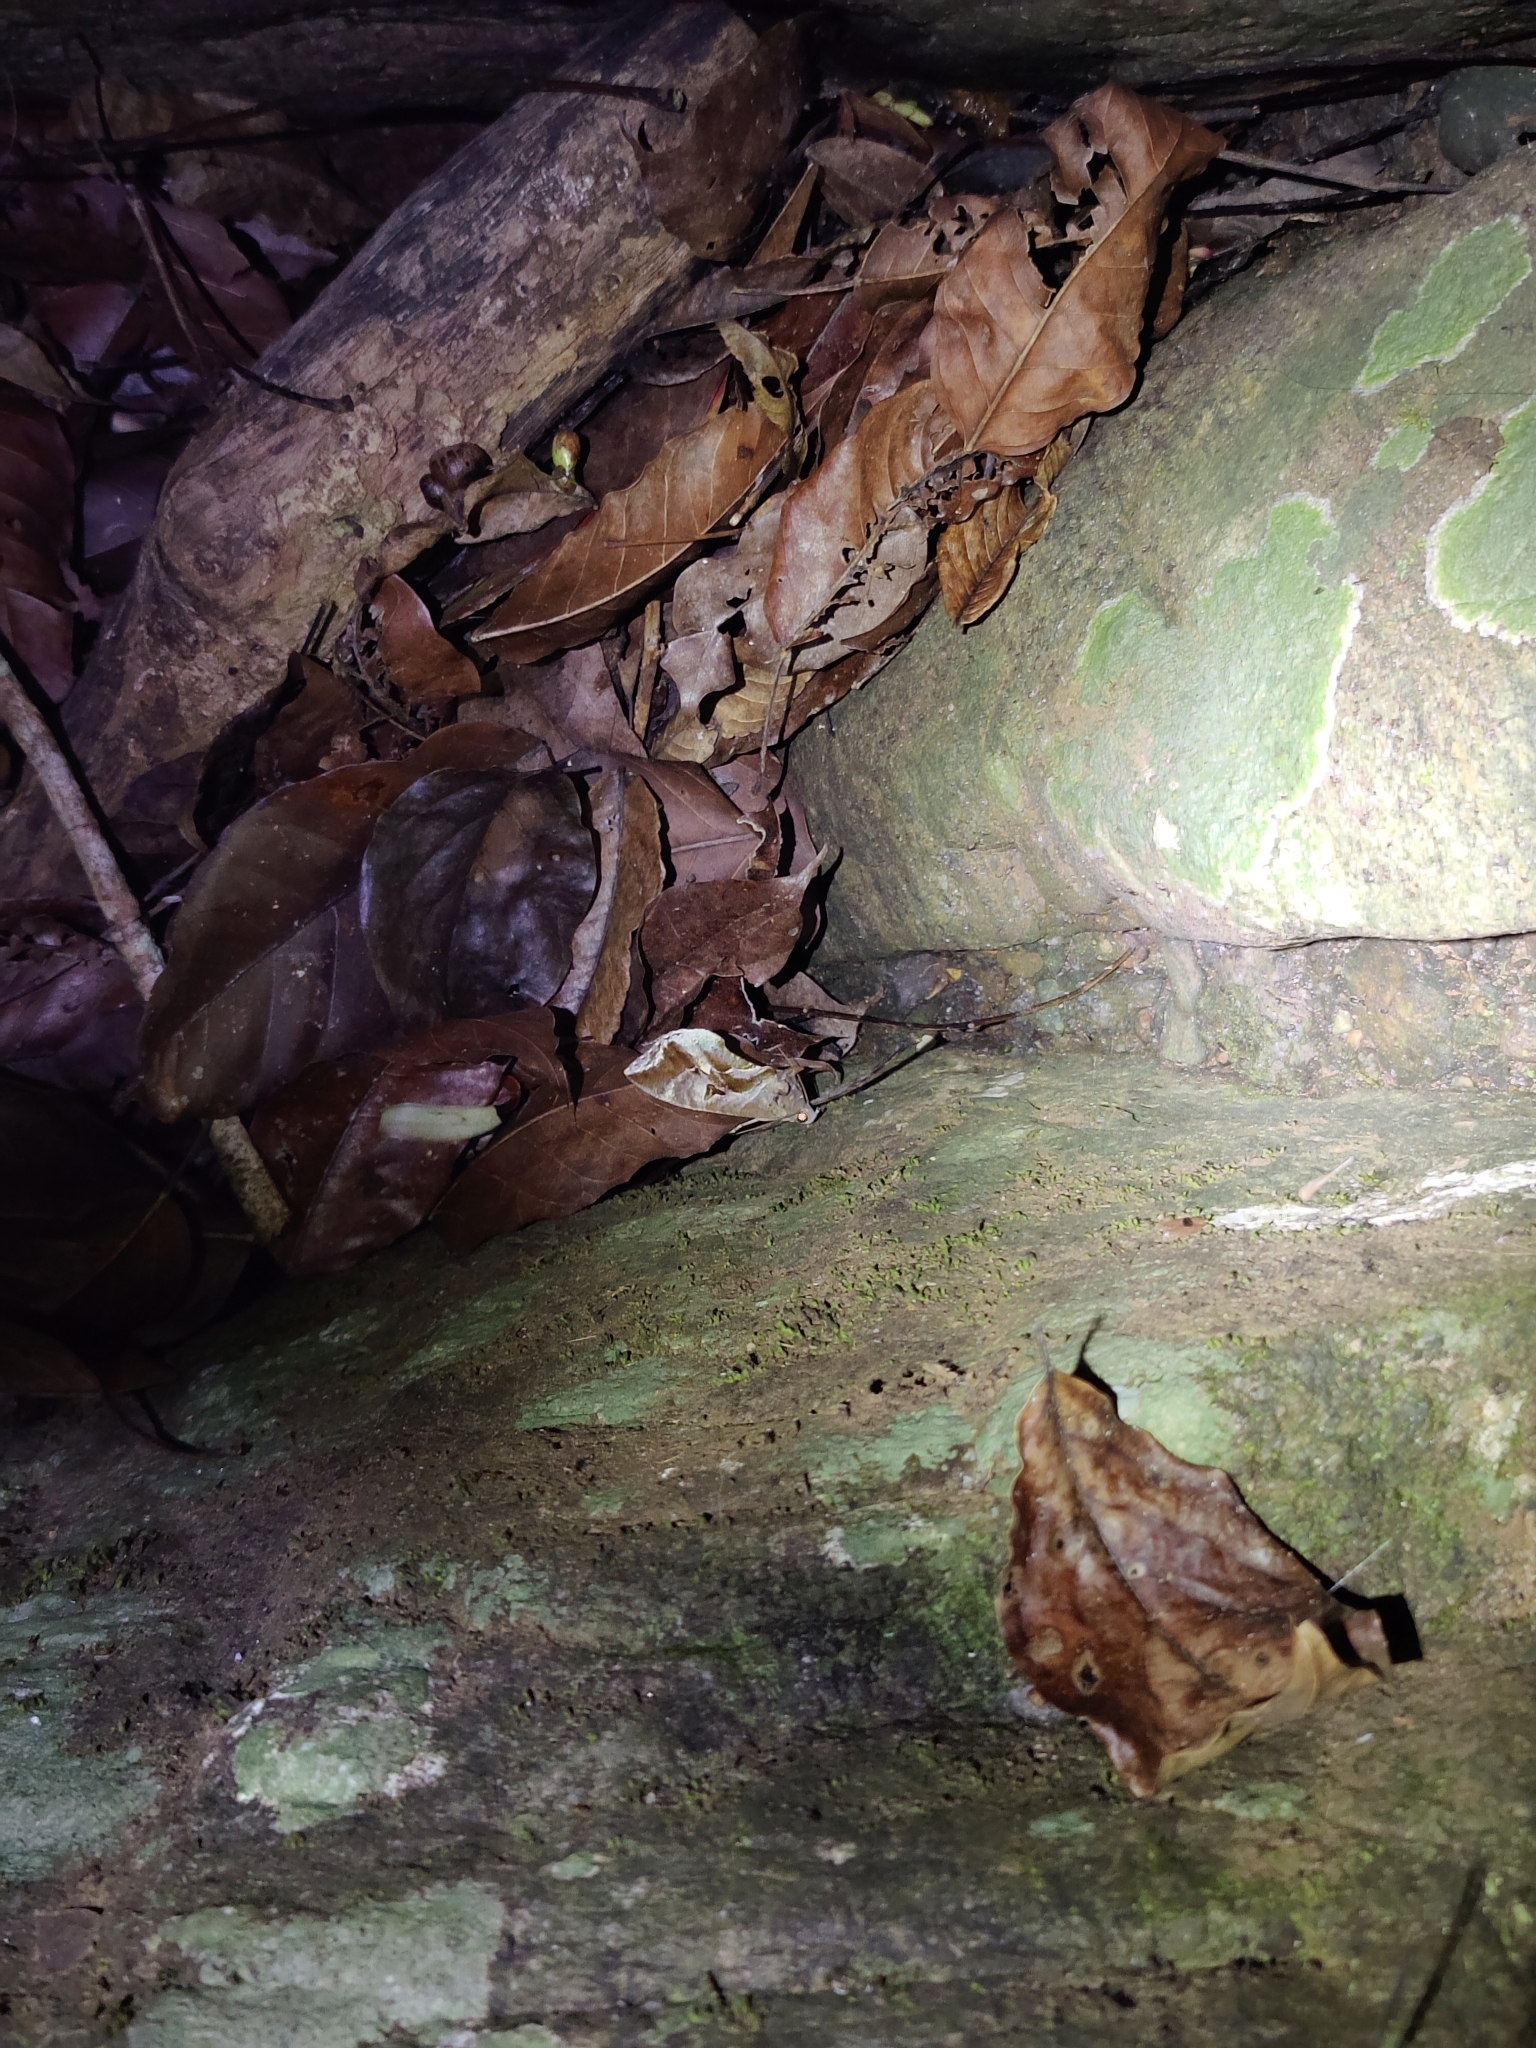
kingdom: Animalia
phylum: Arthropoda
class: Insecta
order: Lepidoptera
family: Erebidae
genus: Eudocima
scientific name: Eudocima phalonia
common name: Wasp
